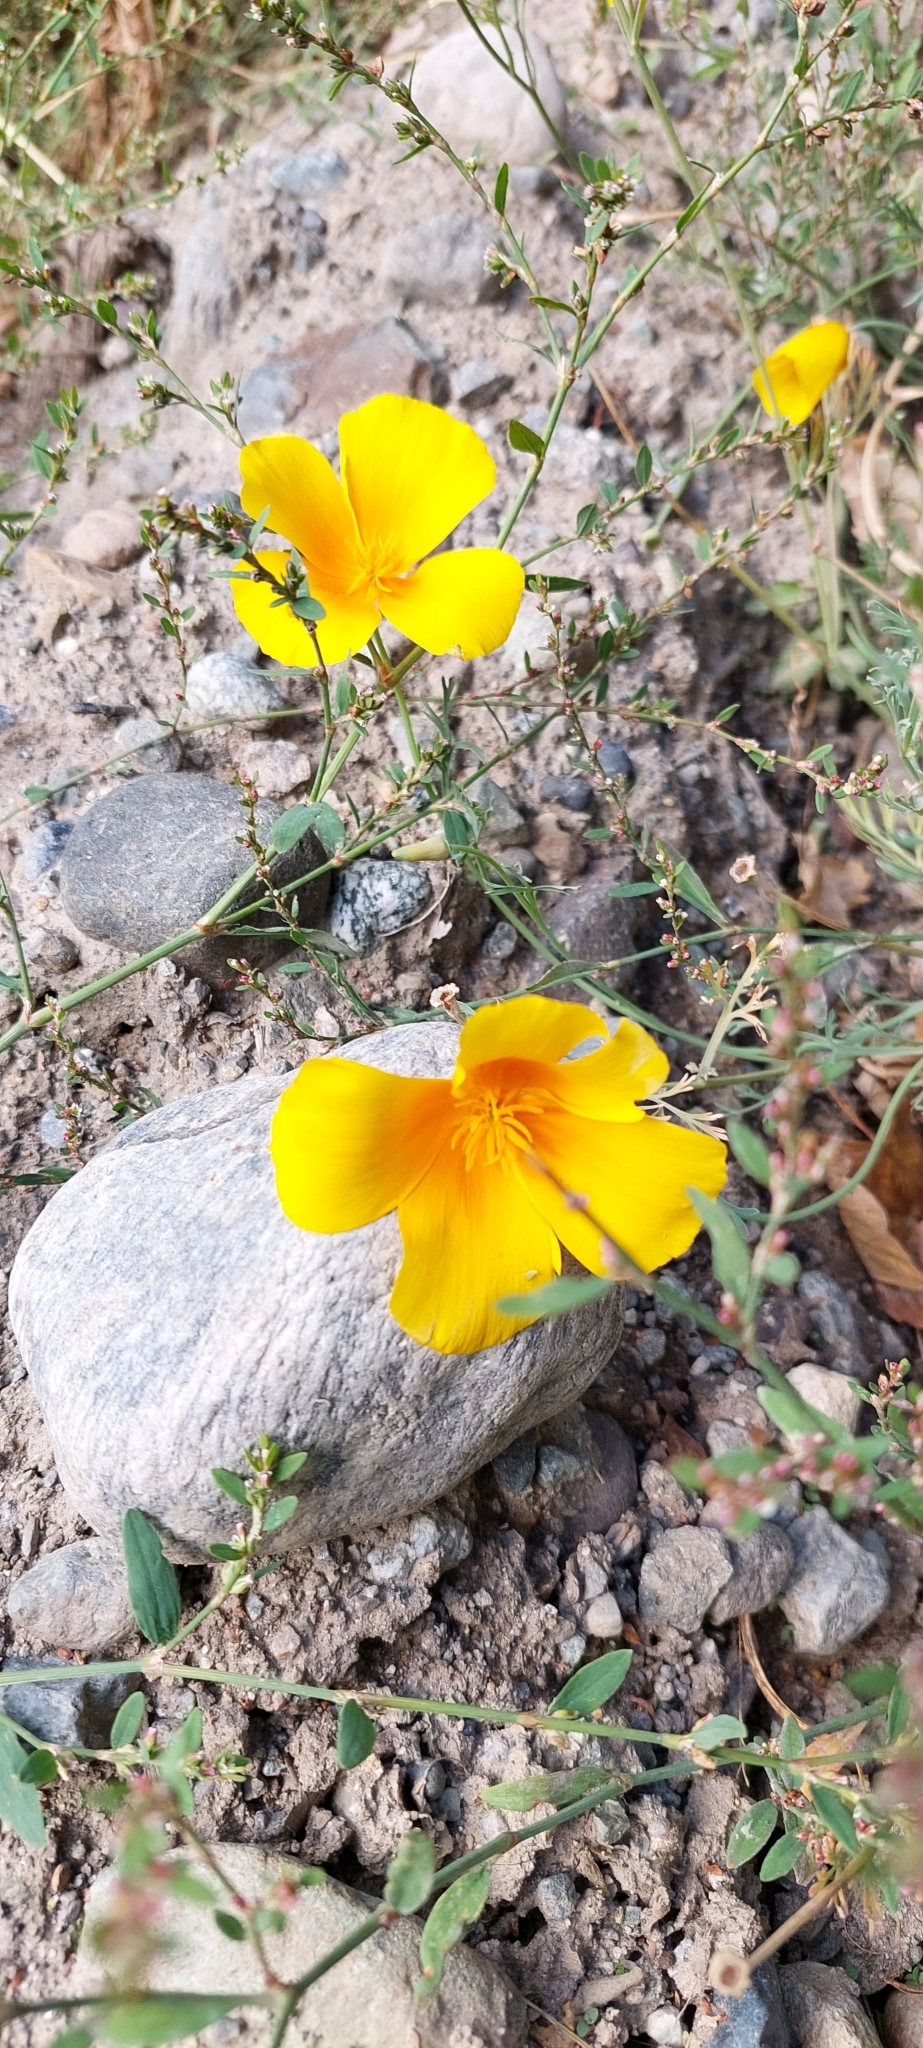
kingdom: Plantae
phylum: Tracheophyta
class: Magnoliopsida
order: Ranunculales
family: Papaveraceae
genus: Eschscholzia
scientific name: Eschscholzia californica
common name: California poppy
